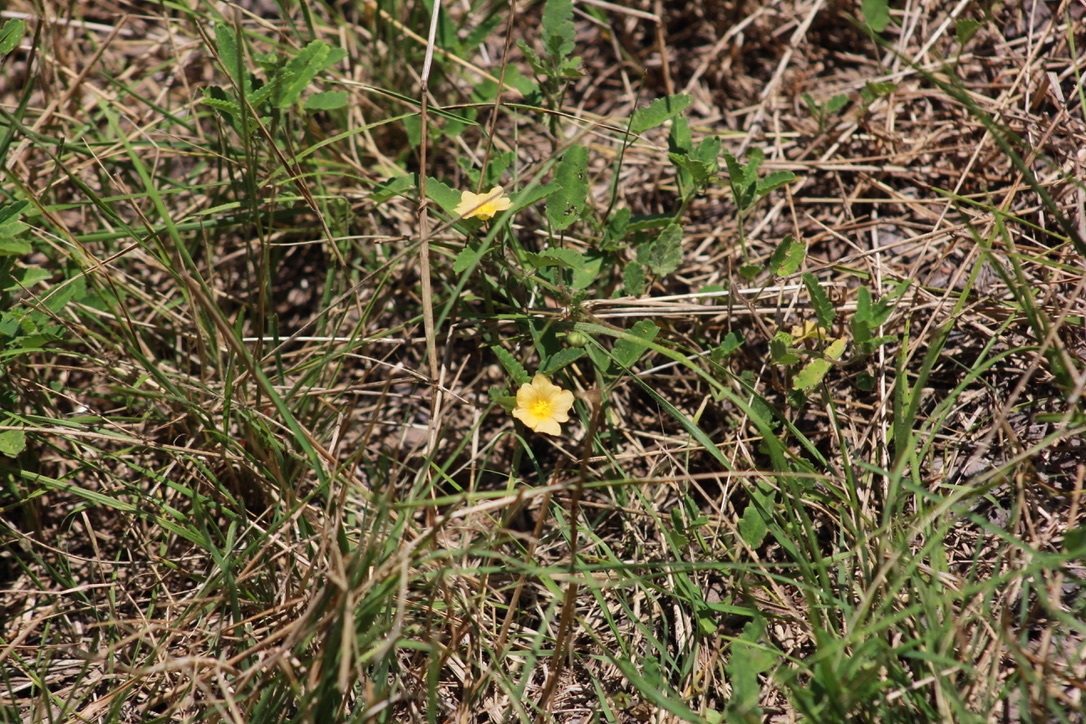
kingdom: Plantae
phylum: Tracheophyta
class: Magnoliopsida
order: Malvales
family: Malvaceae
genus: Sida
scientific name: Sida abutilifolia
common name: Spreading fanpetals
